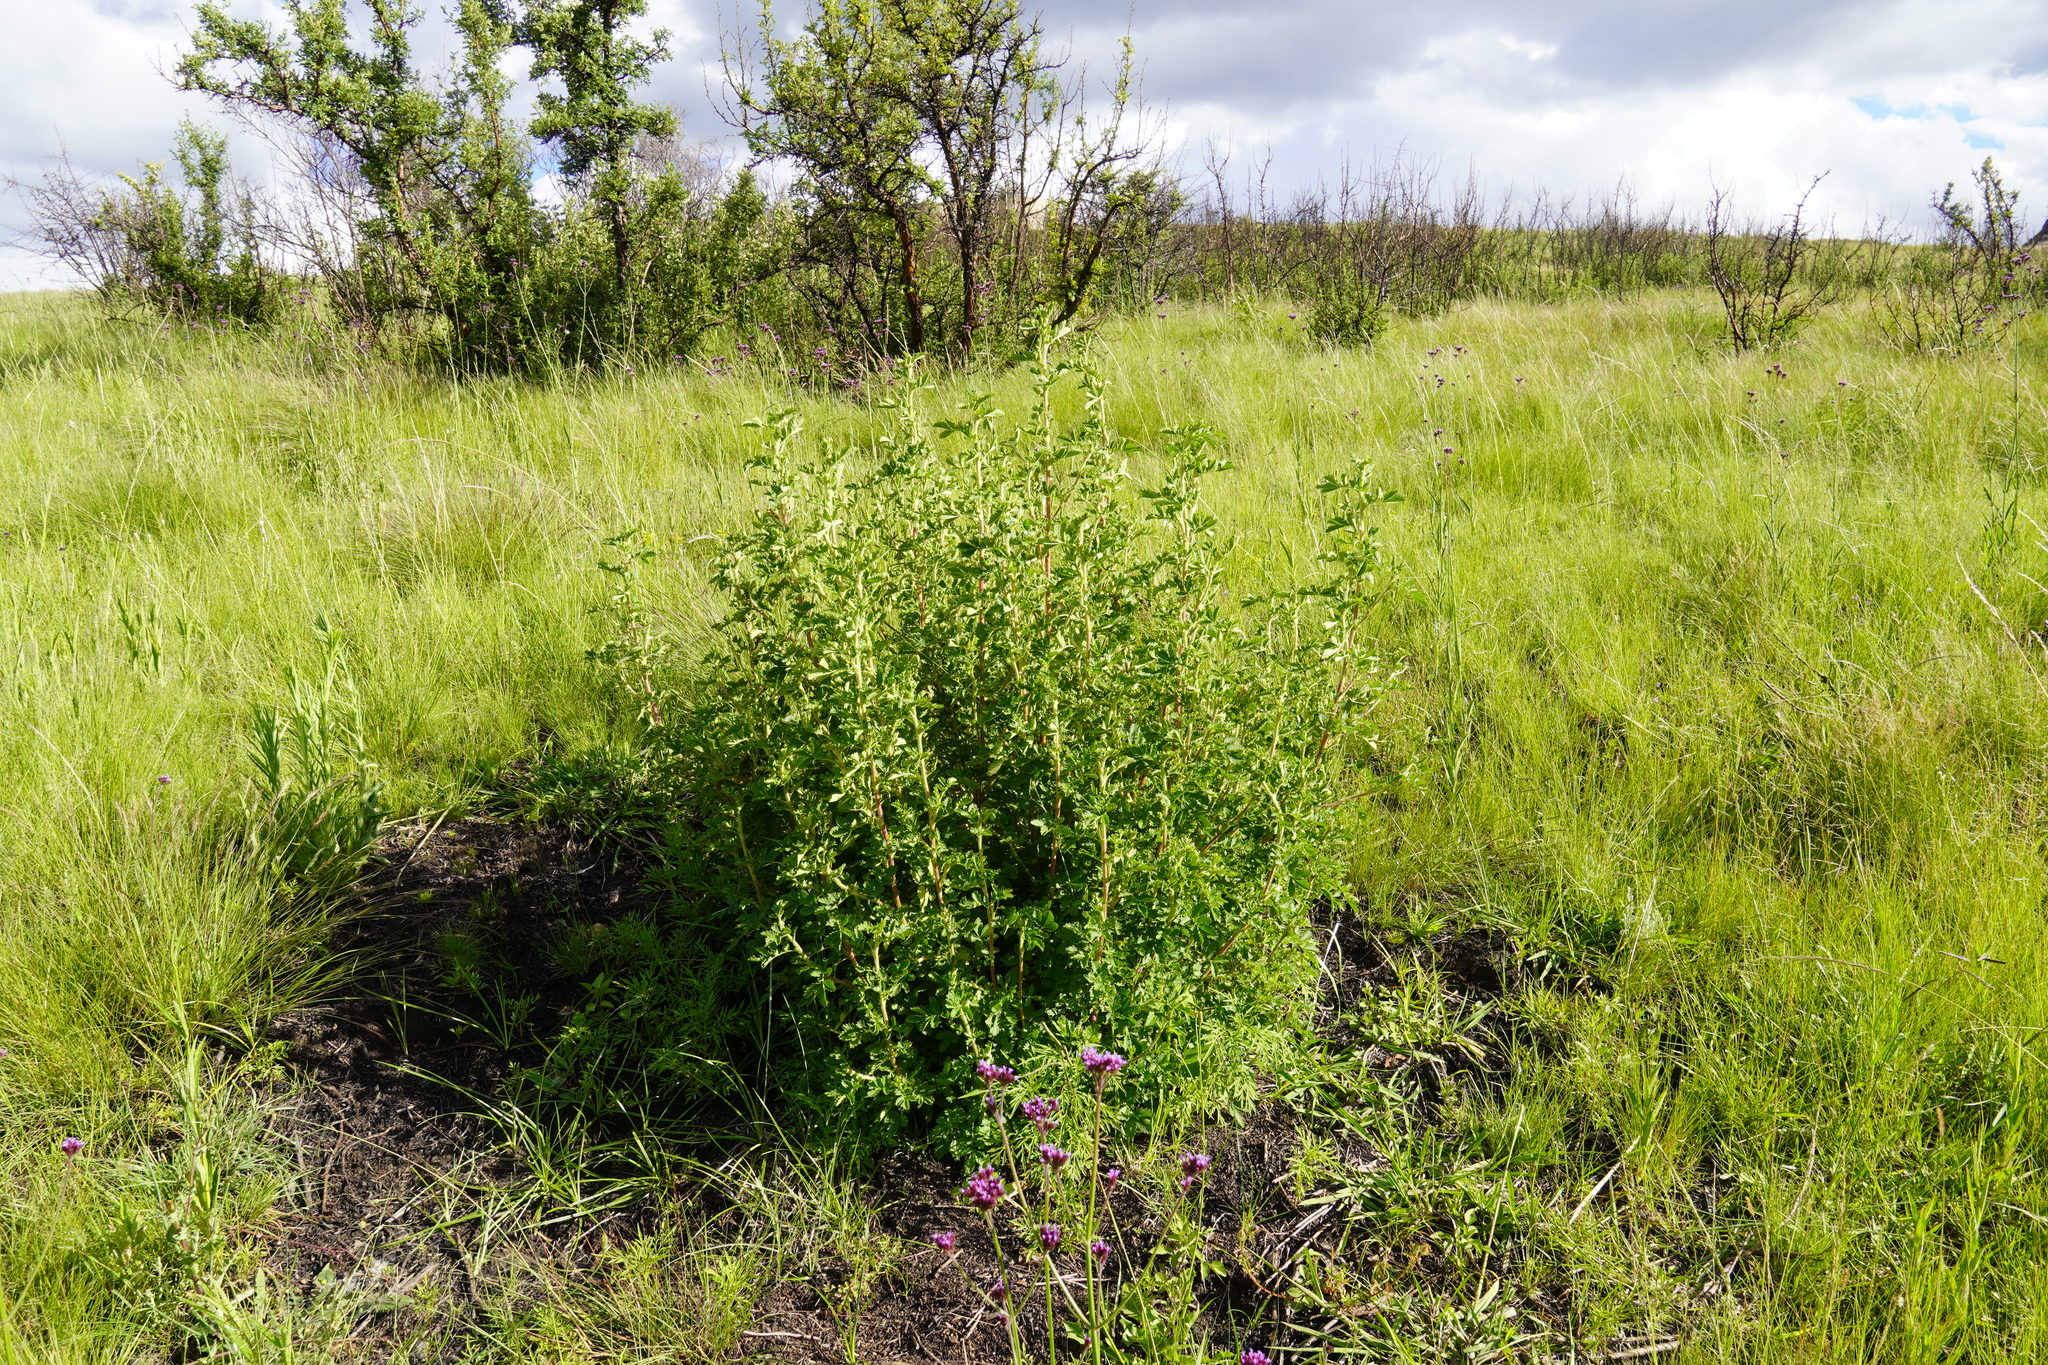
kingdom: Plantae
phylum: Tracheophyta
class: Magnoliopsida
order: Rosales
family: Rosaceae
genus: Leucosidea
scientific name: Leucosidea sericea
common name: Oldwood
